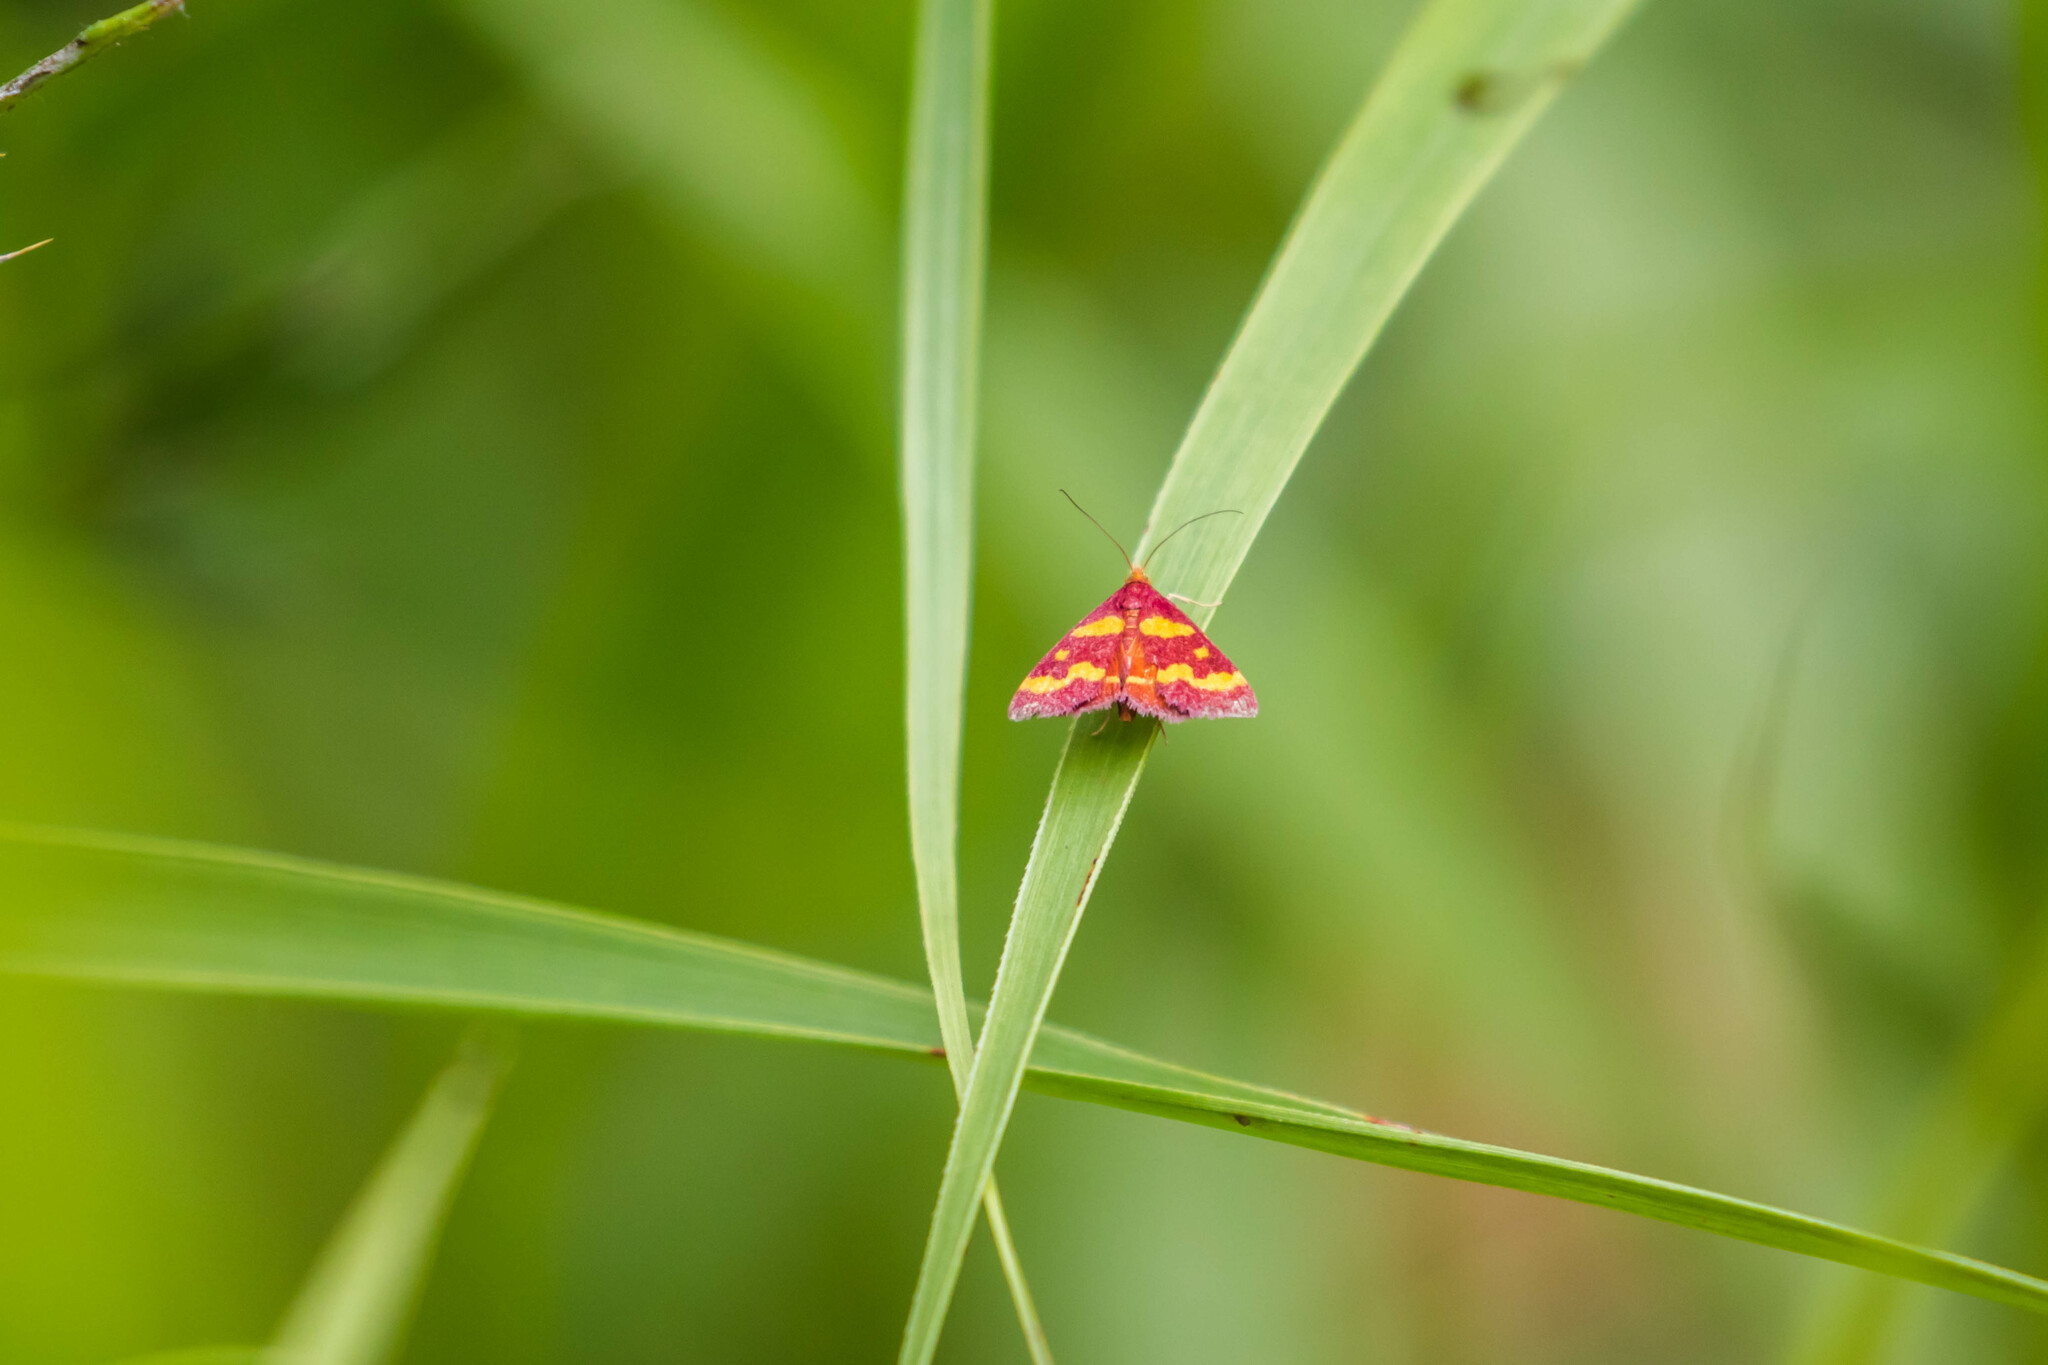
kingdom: Animalia
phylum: Arthropoda
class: Insecta
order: Lepidoptera
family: Crambidae
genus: Pyrausta
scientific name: Pyrausta tyralis
